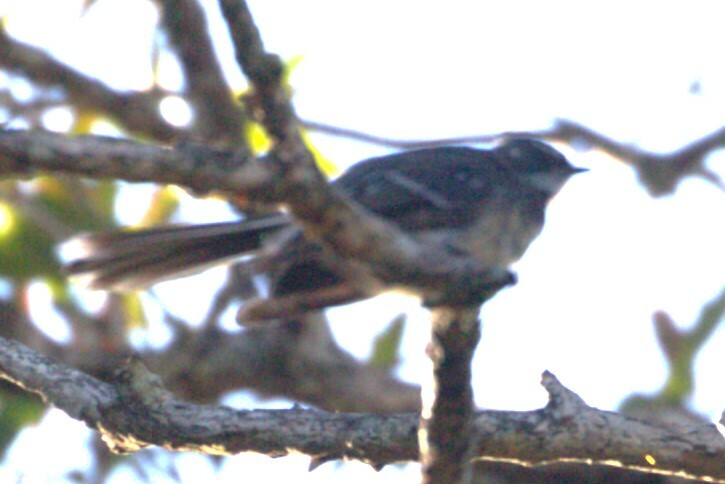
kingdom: Animalia
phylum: Chordata
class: Aves
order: Passeriformes
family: Rhipiduridae
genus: Rhipidura
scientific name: Rhipidura albiscapa
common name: Grey fantail
